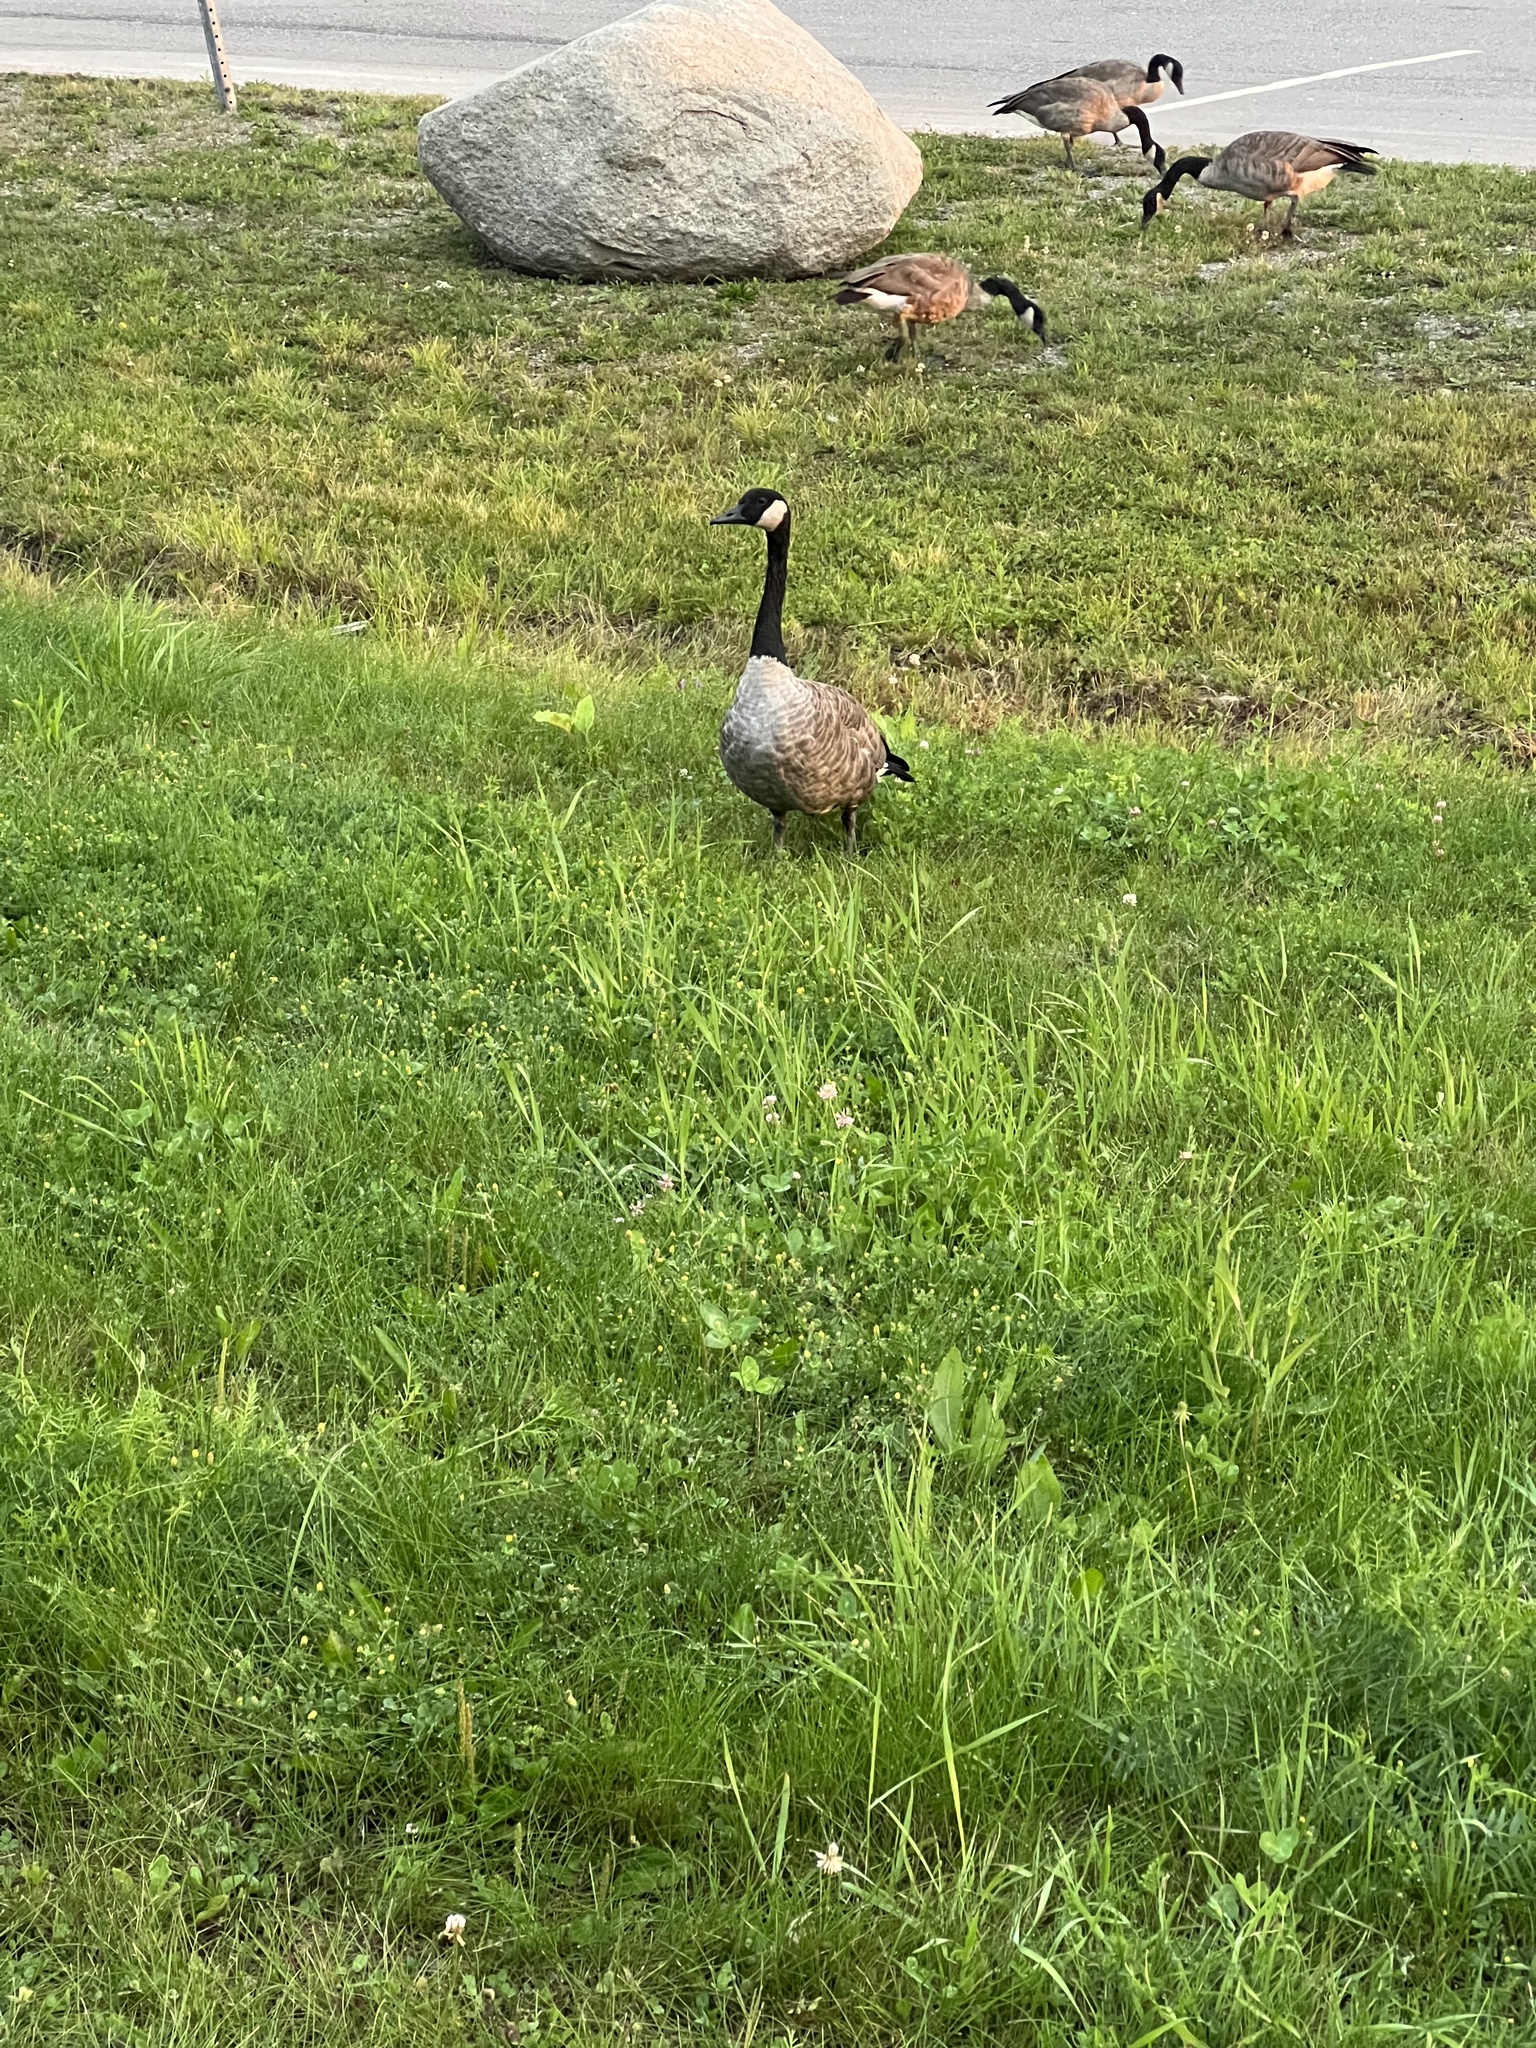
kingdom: Animalia
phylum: Chordata
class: Aves
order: Anseriformes
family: Anatidae
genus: Branta
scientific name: Branta canadensis
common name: Canada goose
